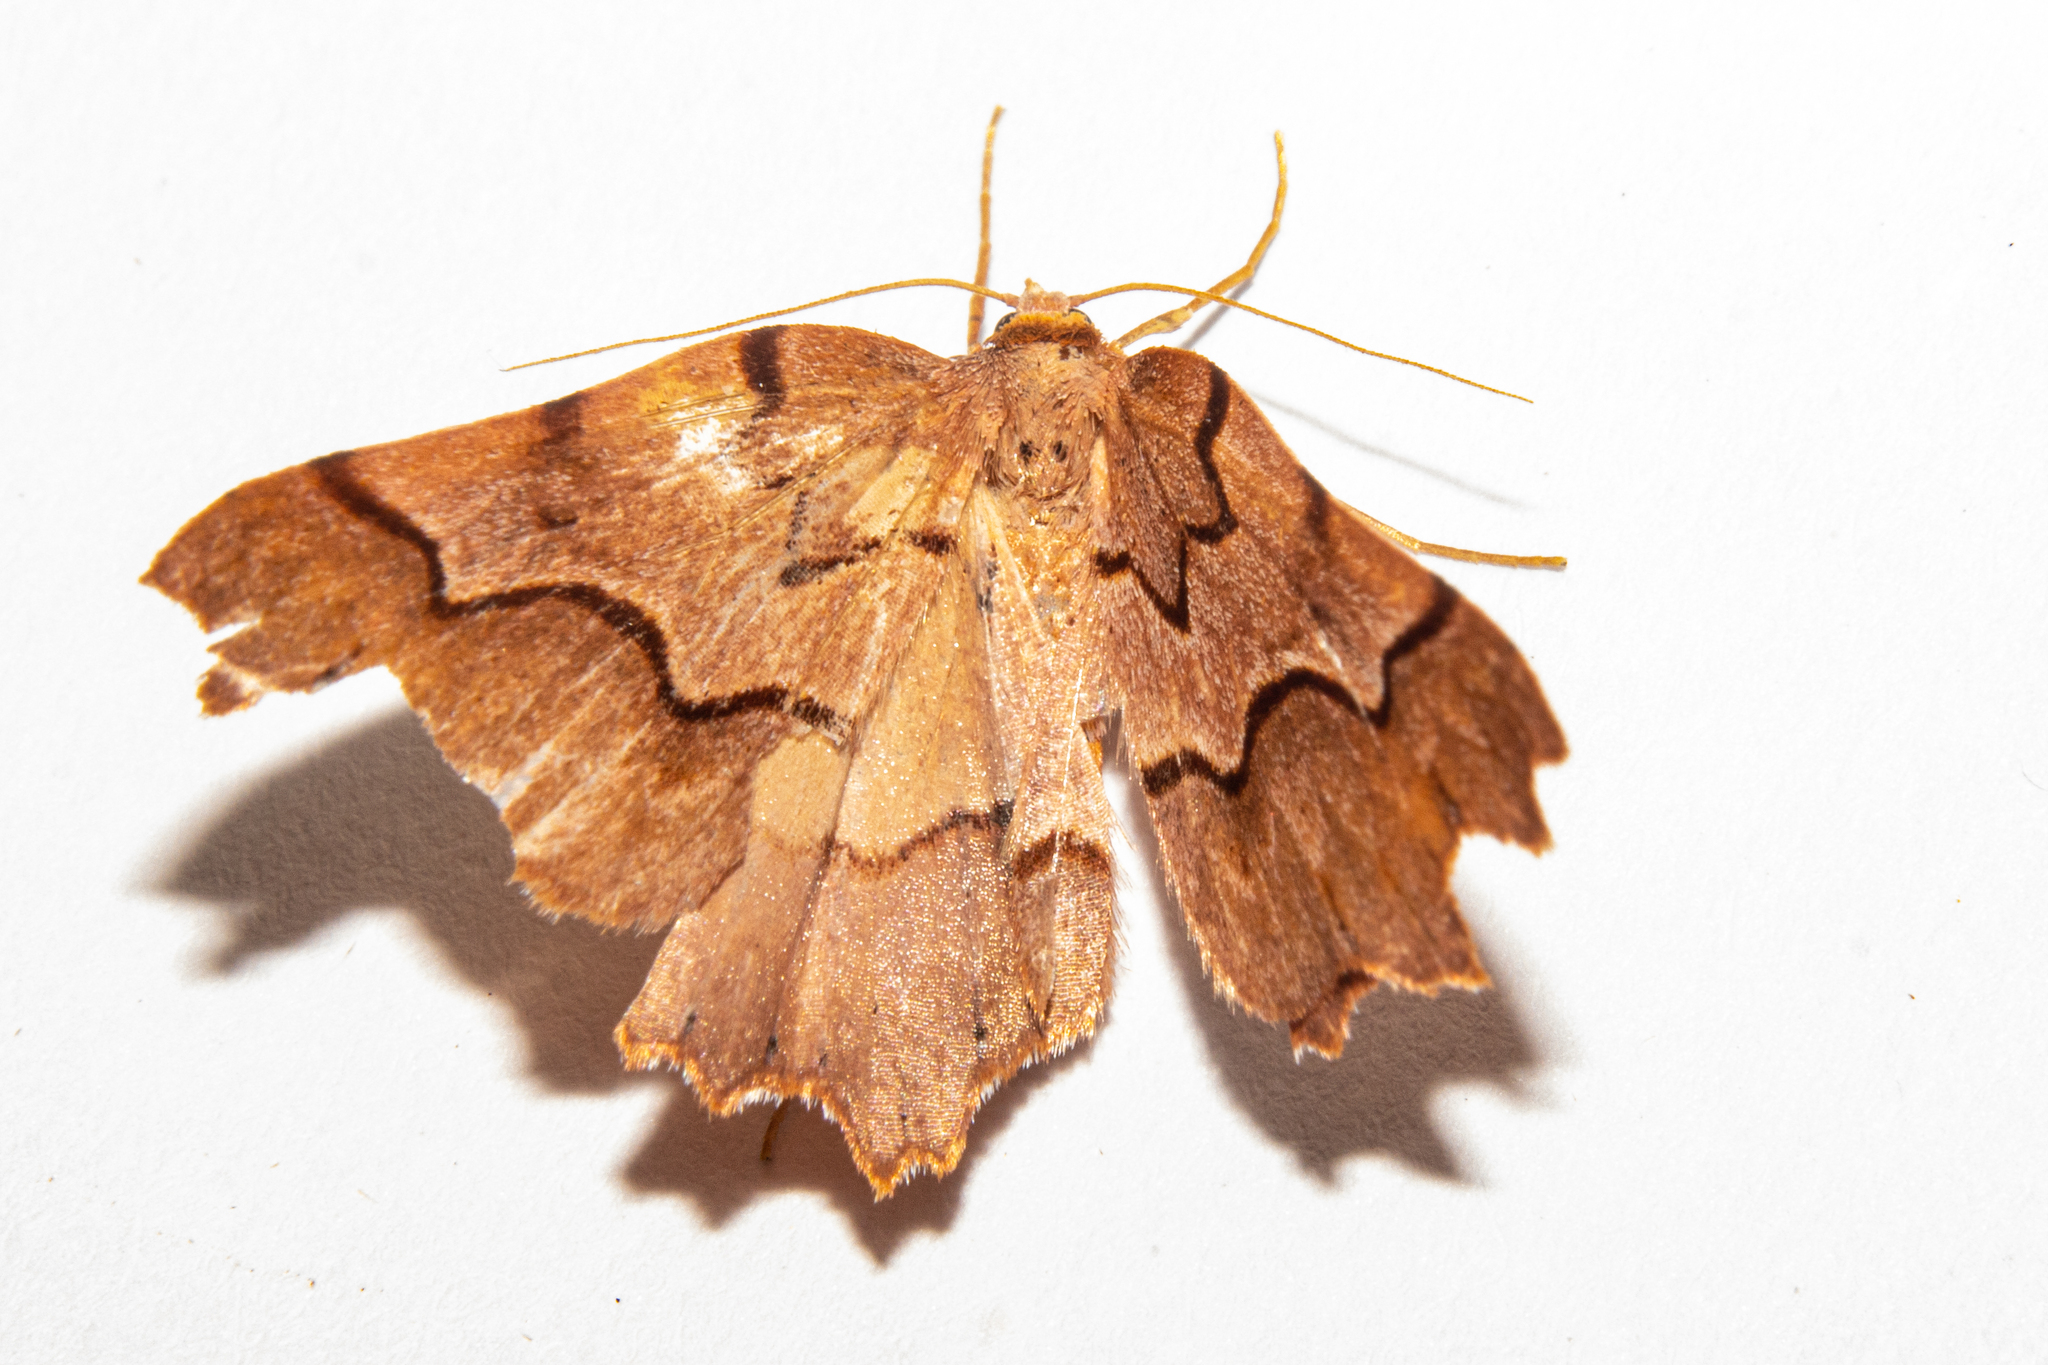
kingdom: Animalia
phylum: Arthropoda
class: Insecta
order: Lepidoptera
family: Geometridae
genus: Ischalis
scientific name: Ischalis fortinata
